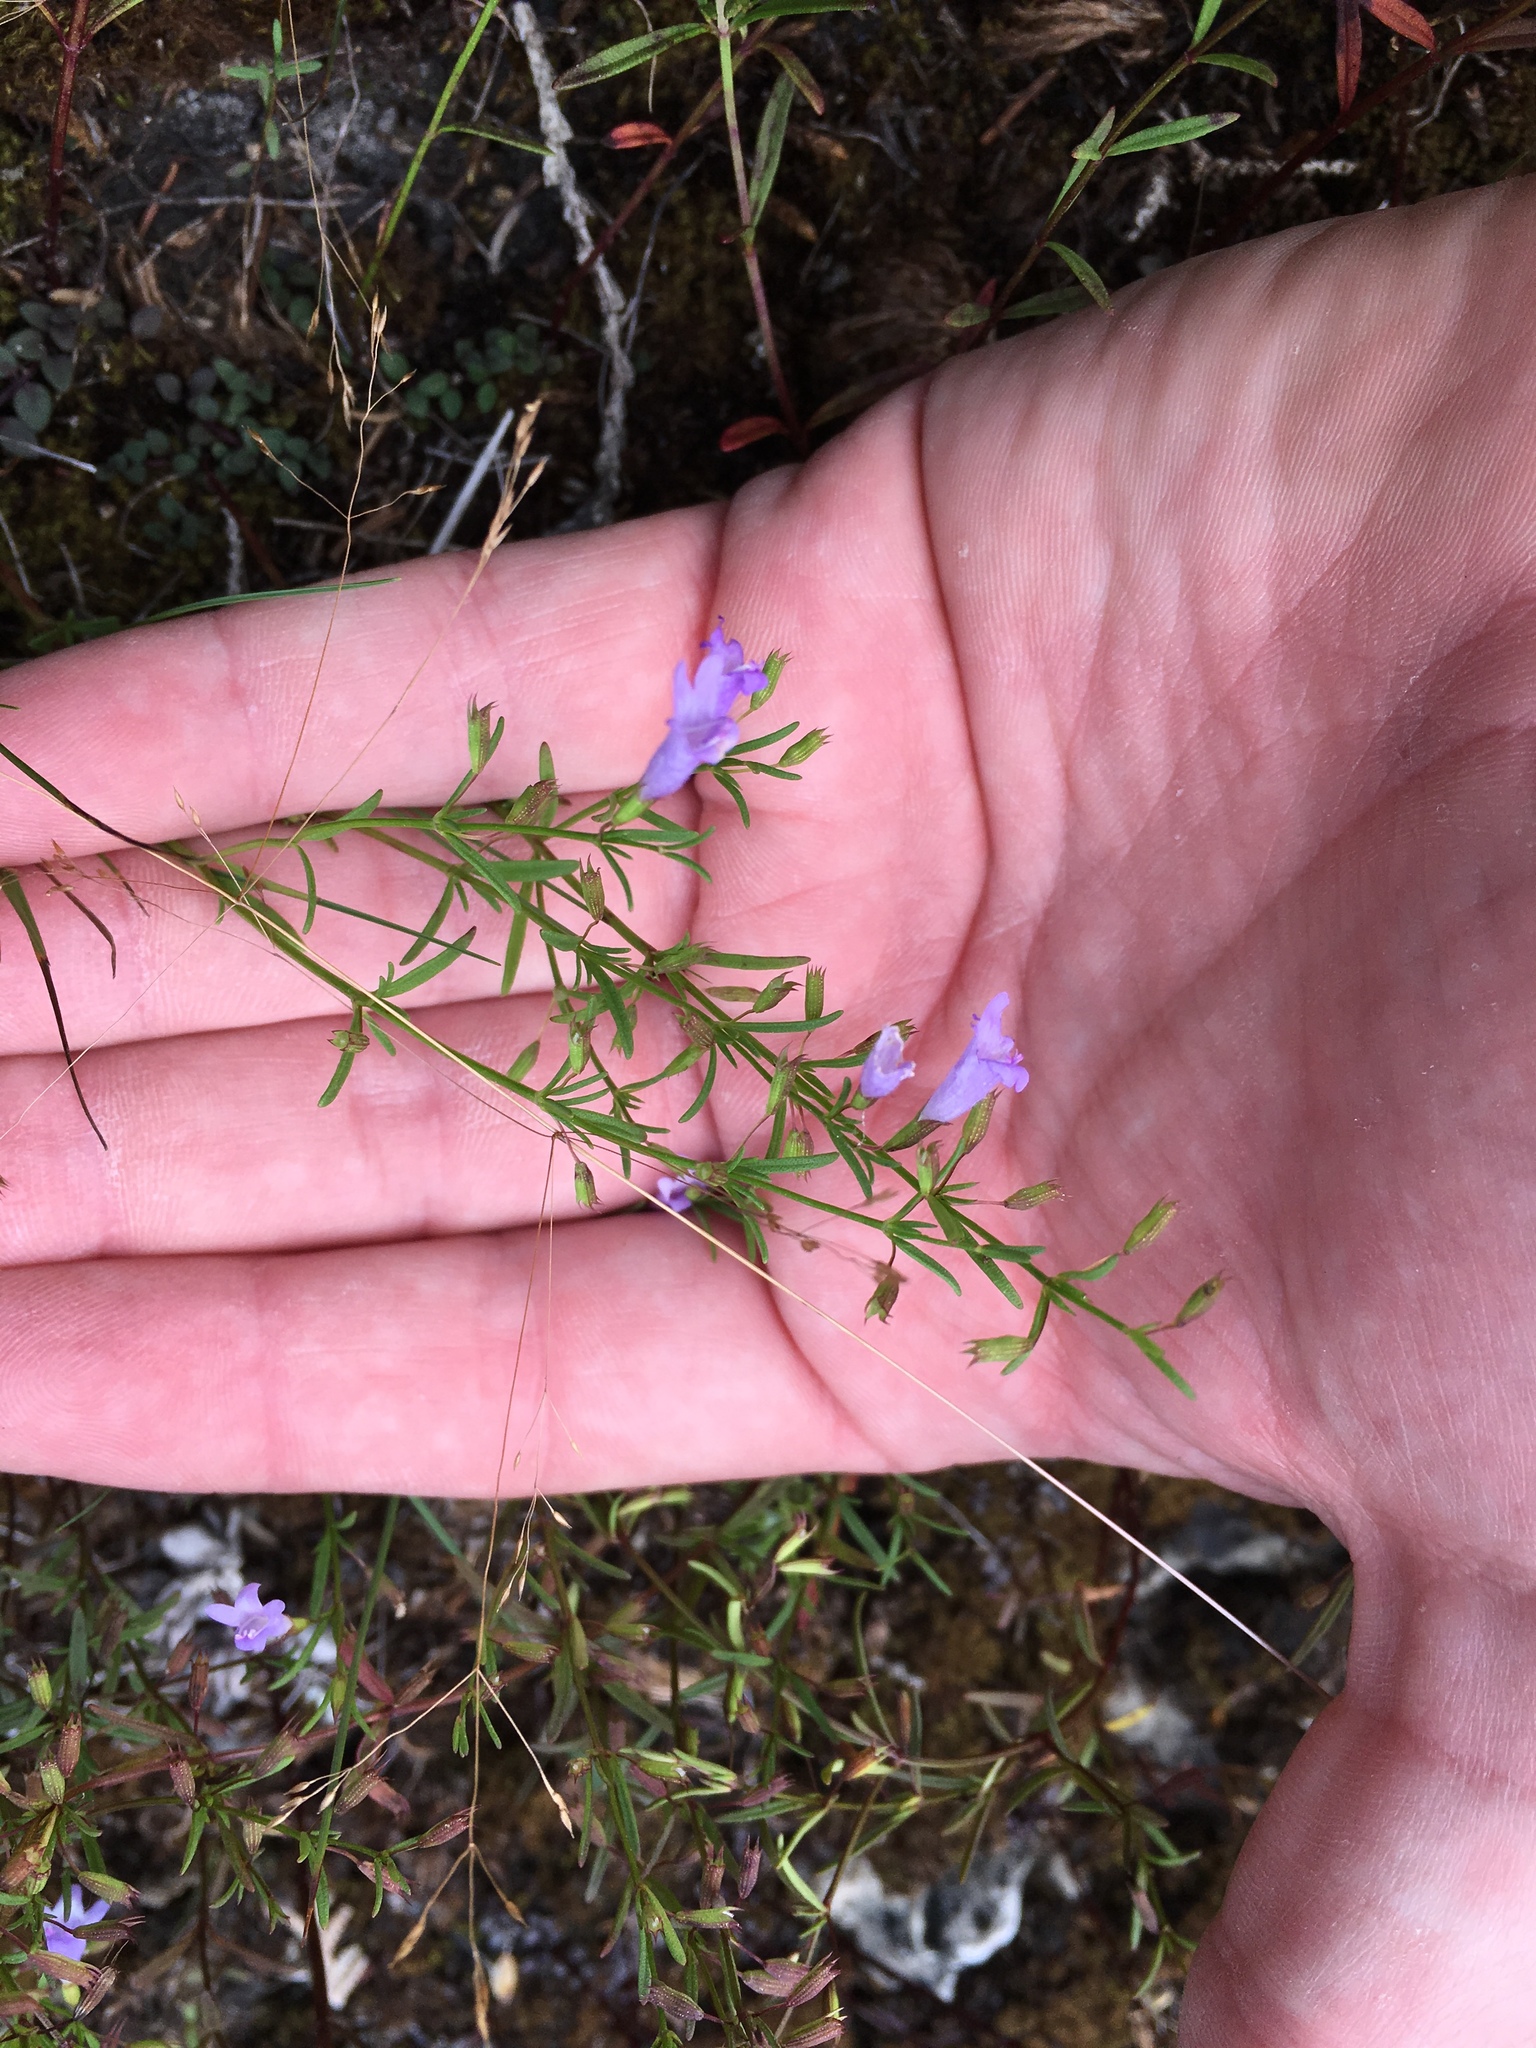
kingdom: Plantae
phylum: Tracheophyta
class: Magnoliopsida
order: Lamiales
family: Lamiaceae
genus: Clinopodium
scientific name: Clinopodium arkansanum
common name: Limestone calamint
